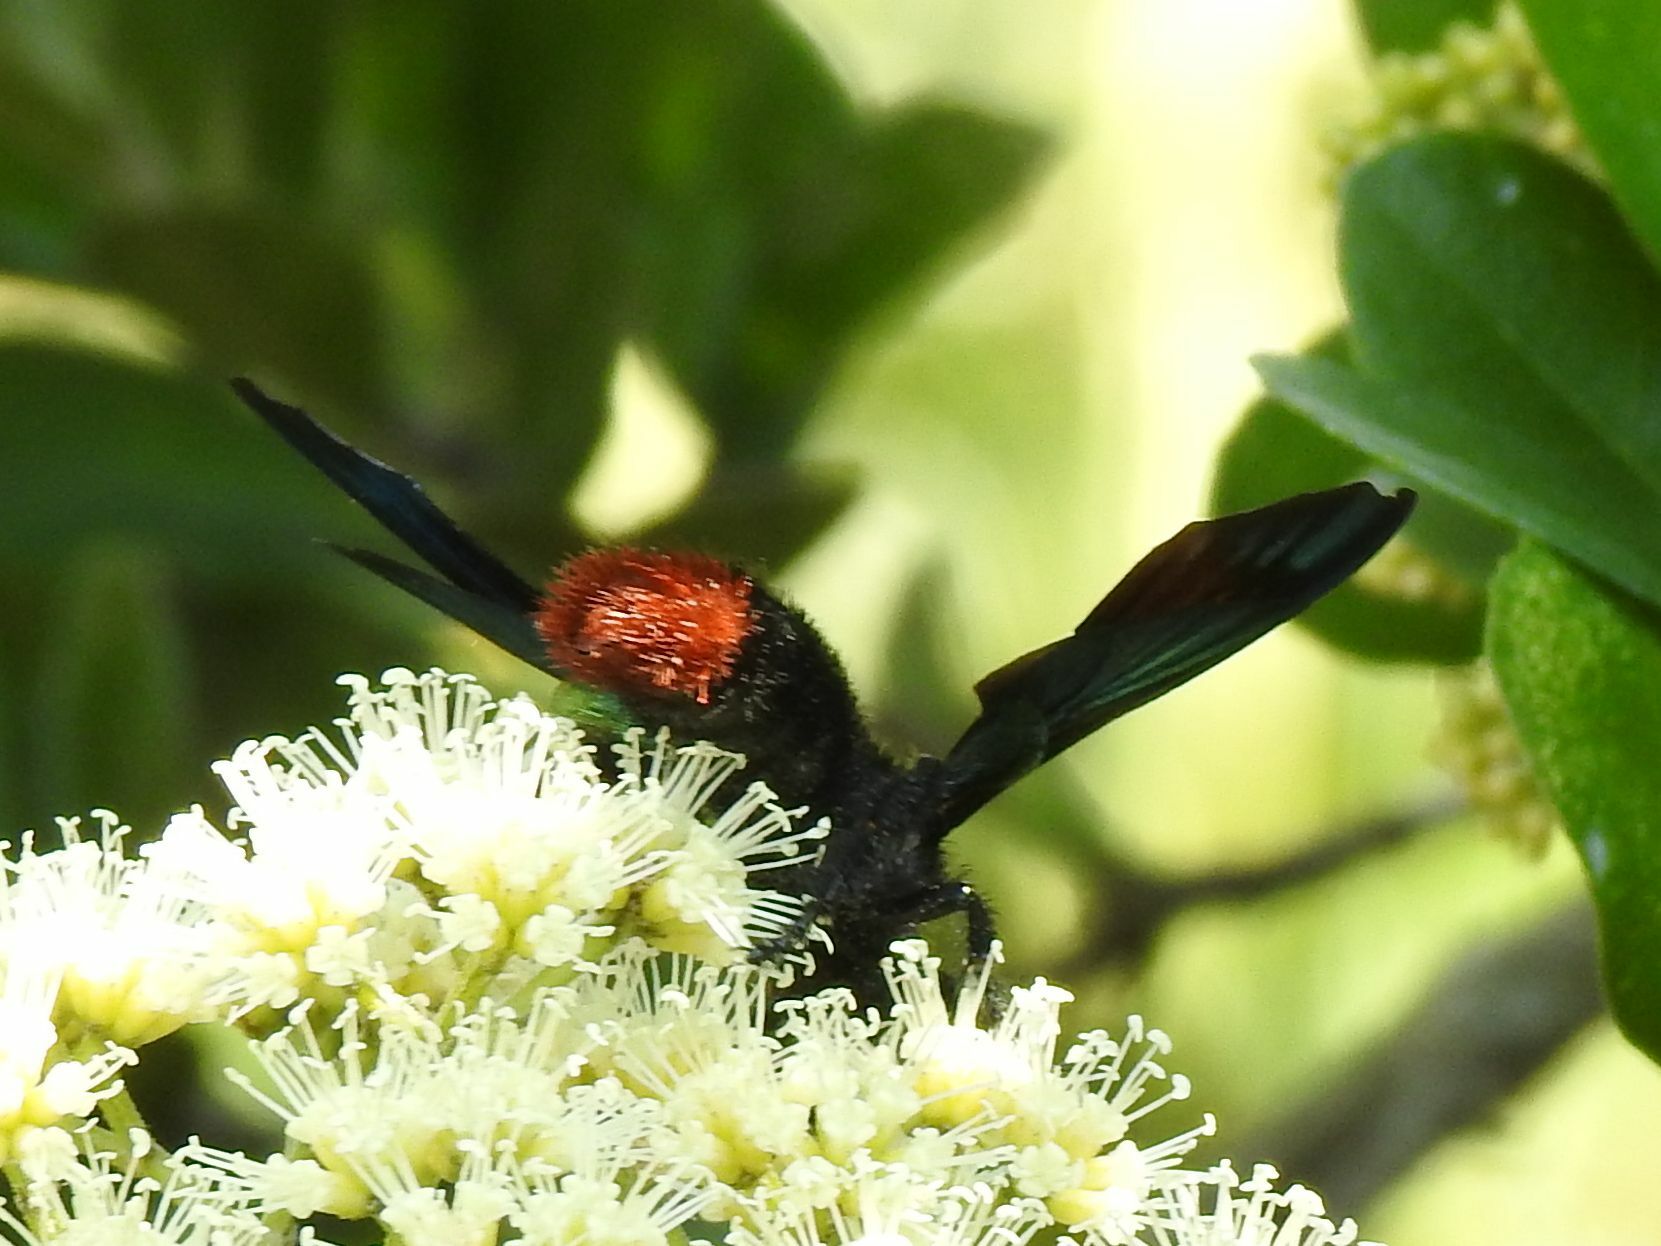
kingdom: Animalia
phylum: Arthropoda
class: Insecta
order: Hymenoptera
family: Scoliidae
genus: Pyrrhoscolia
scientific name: Pyrrhoscolia
